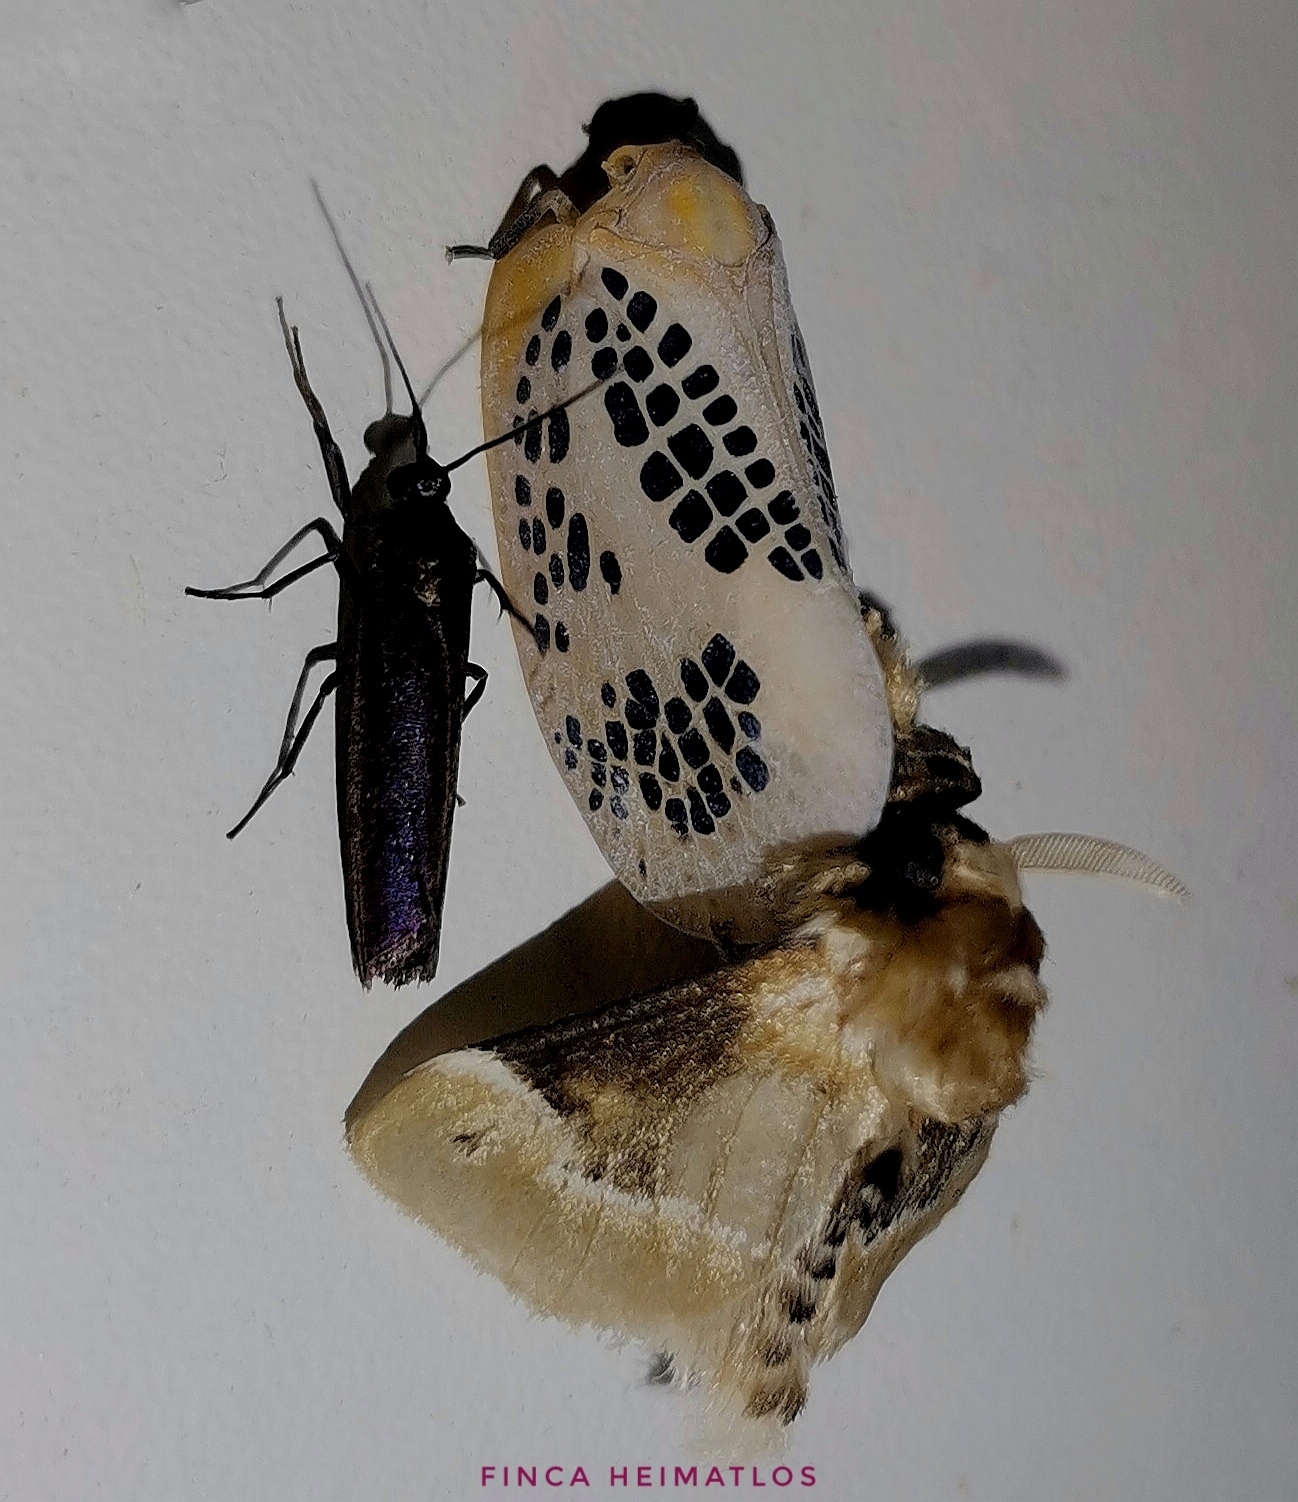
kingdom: Animalia
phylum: Arthropoda
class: Insecta
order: Lepidoptera
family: Megalopygidae
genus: Podalia
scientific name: Podalia prolecta
